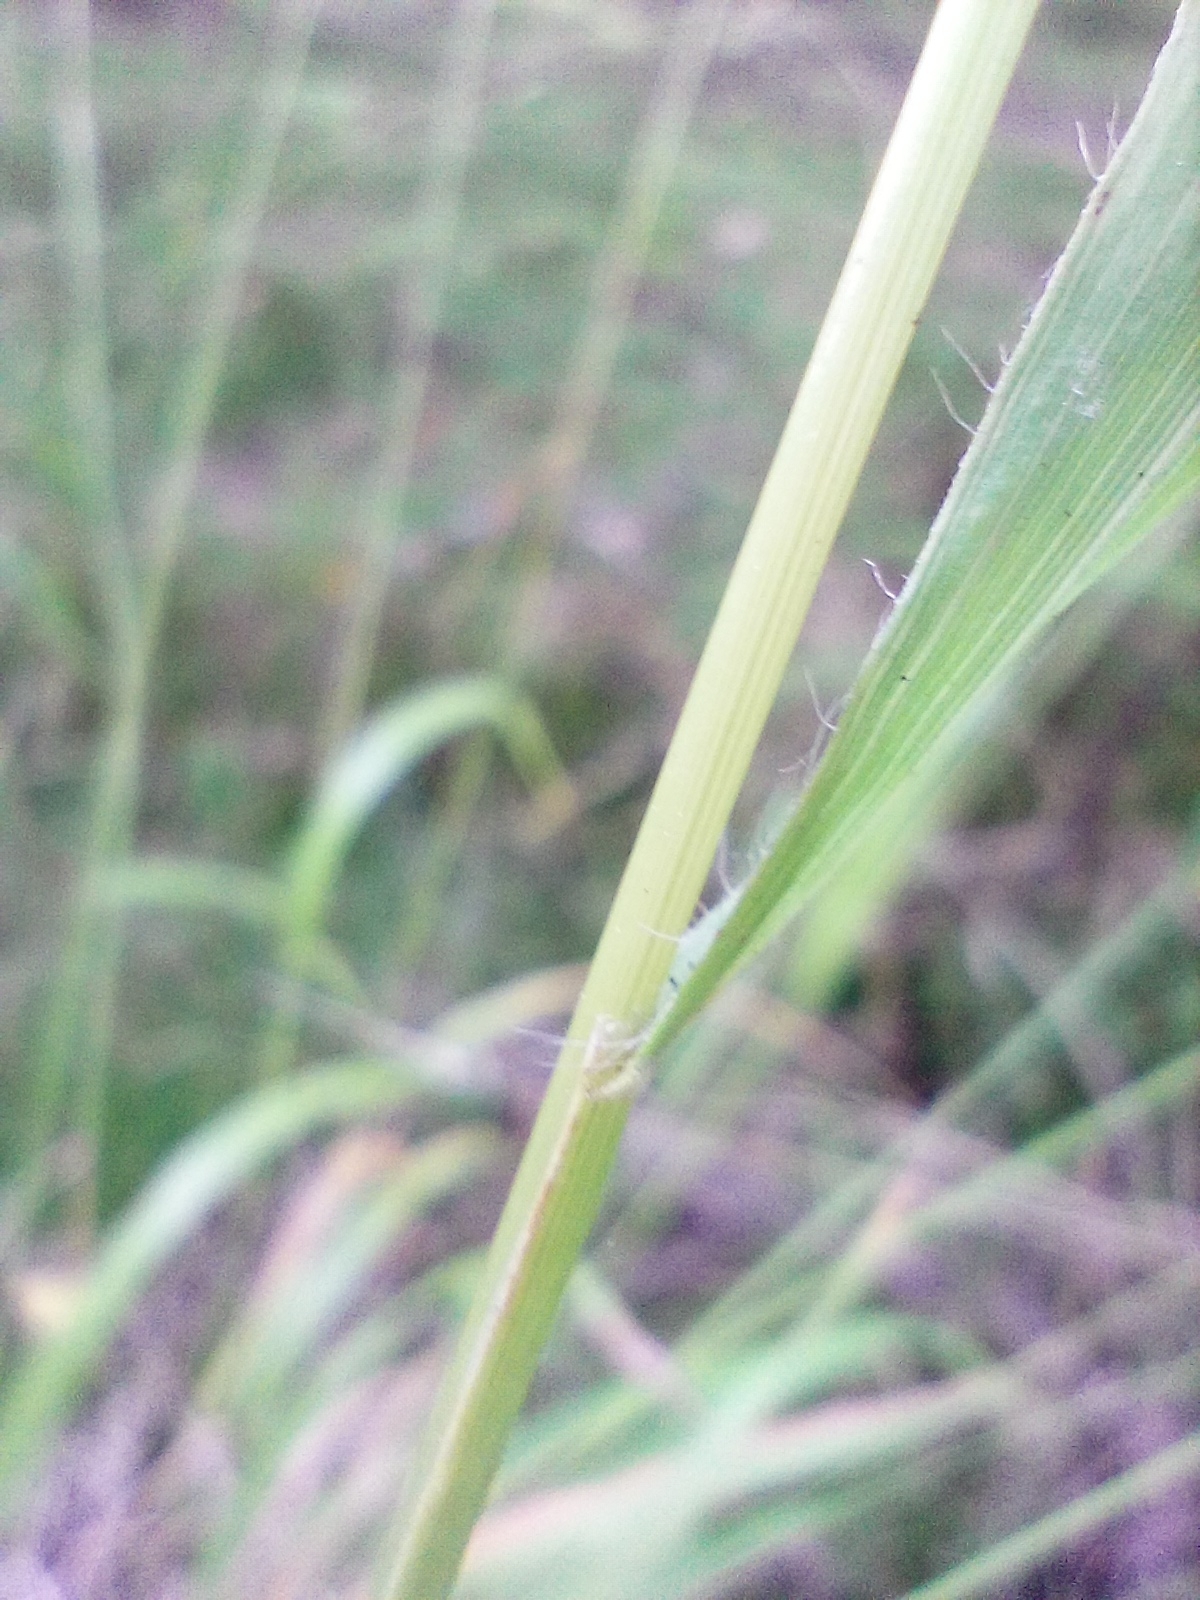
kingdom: Plantae
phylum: Tracheophyta
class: Liliopsida
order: Poales
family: Poaceae
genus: Brachypodium
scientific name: Brachypodium sylvaticum
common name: False-brome
